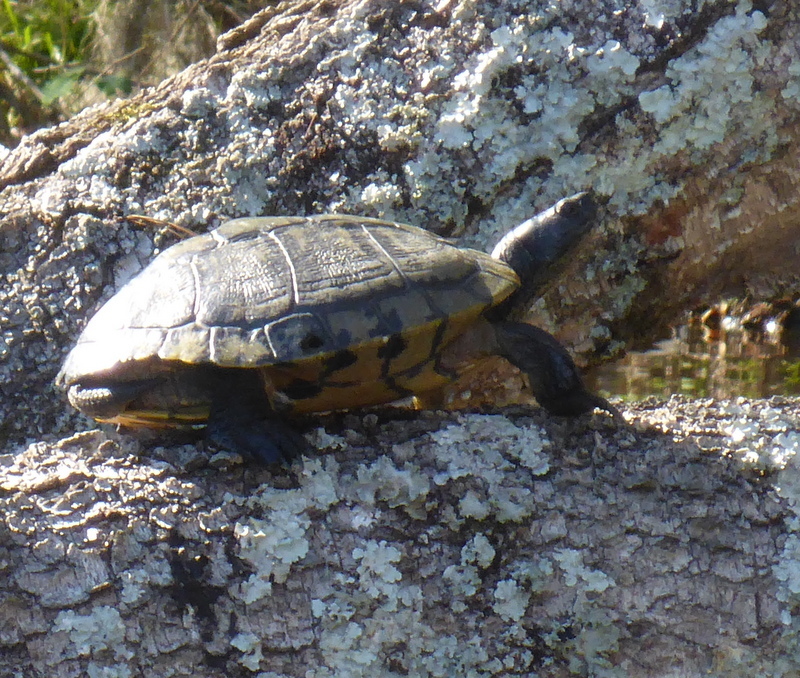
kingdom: Animalia
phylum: Chordata
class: Testudines
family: Emydidae
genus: Trachemys
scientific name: Trachemys scripta
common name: Slider
